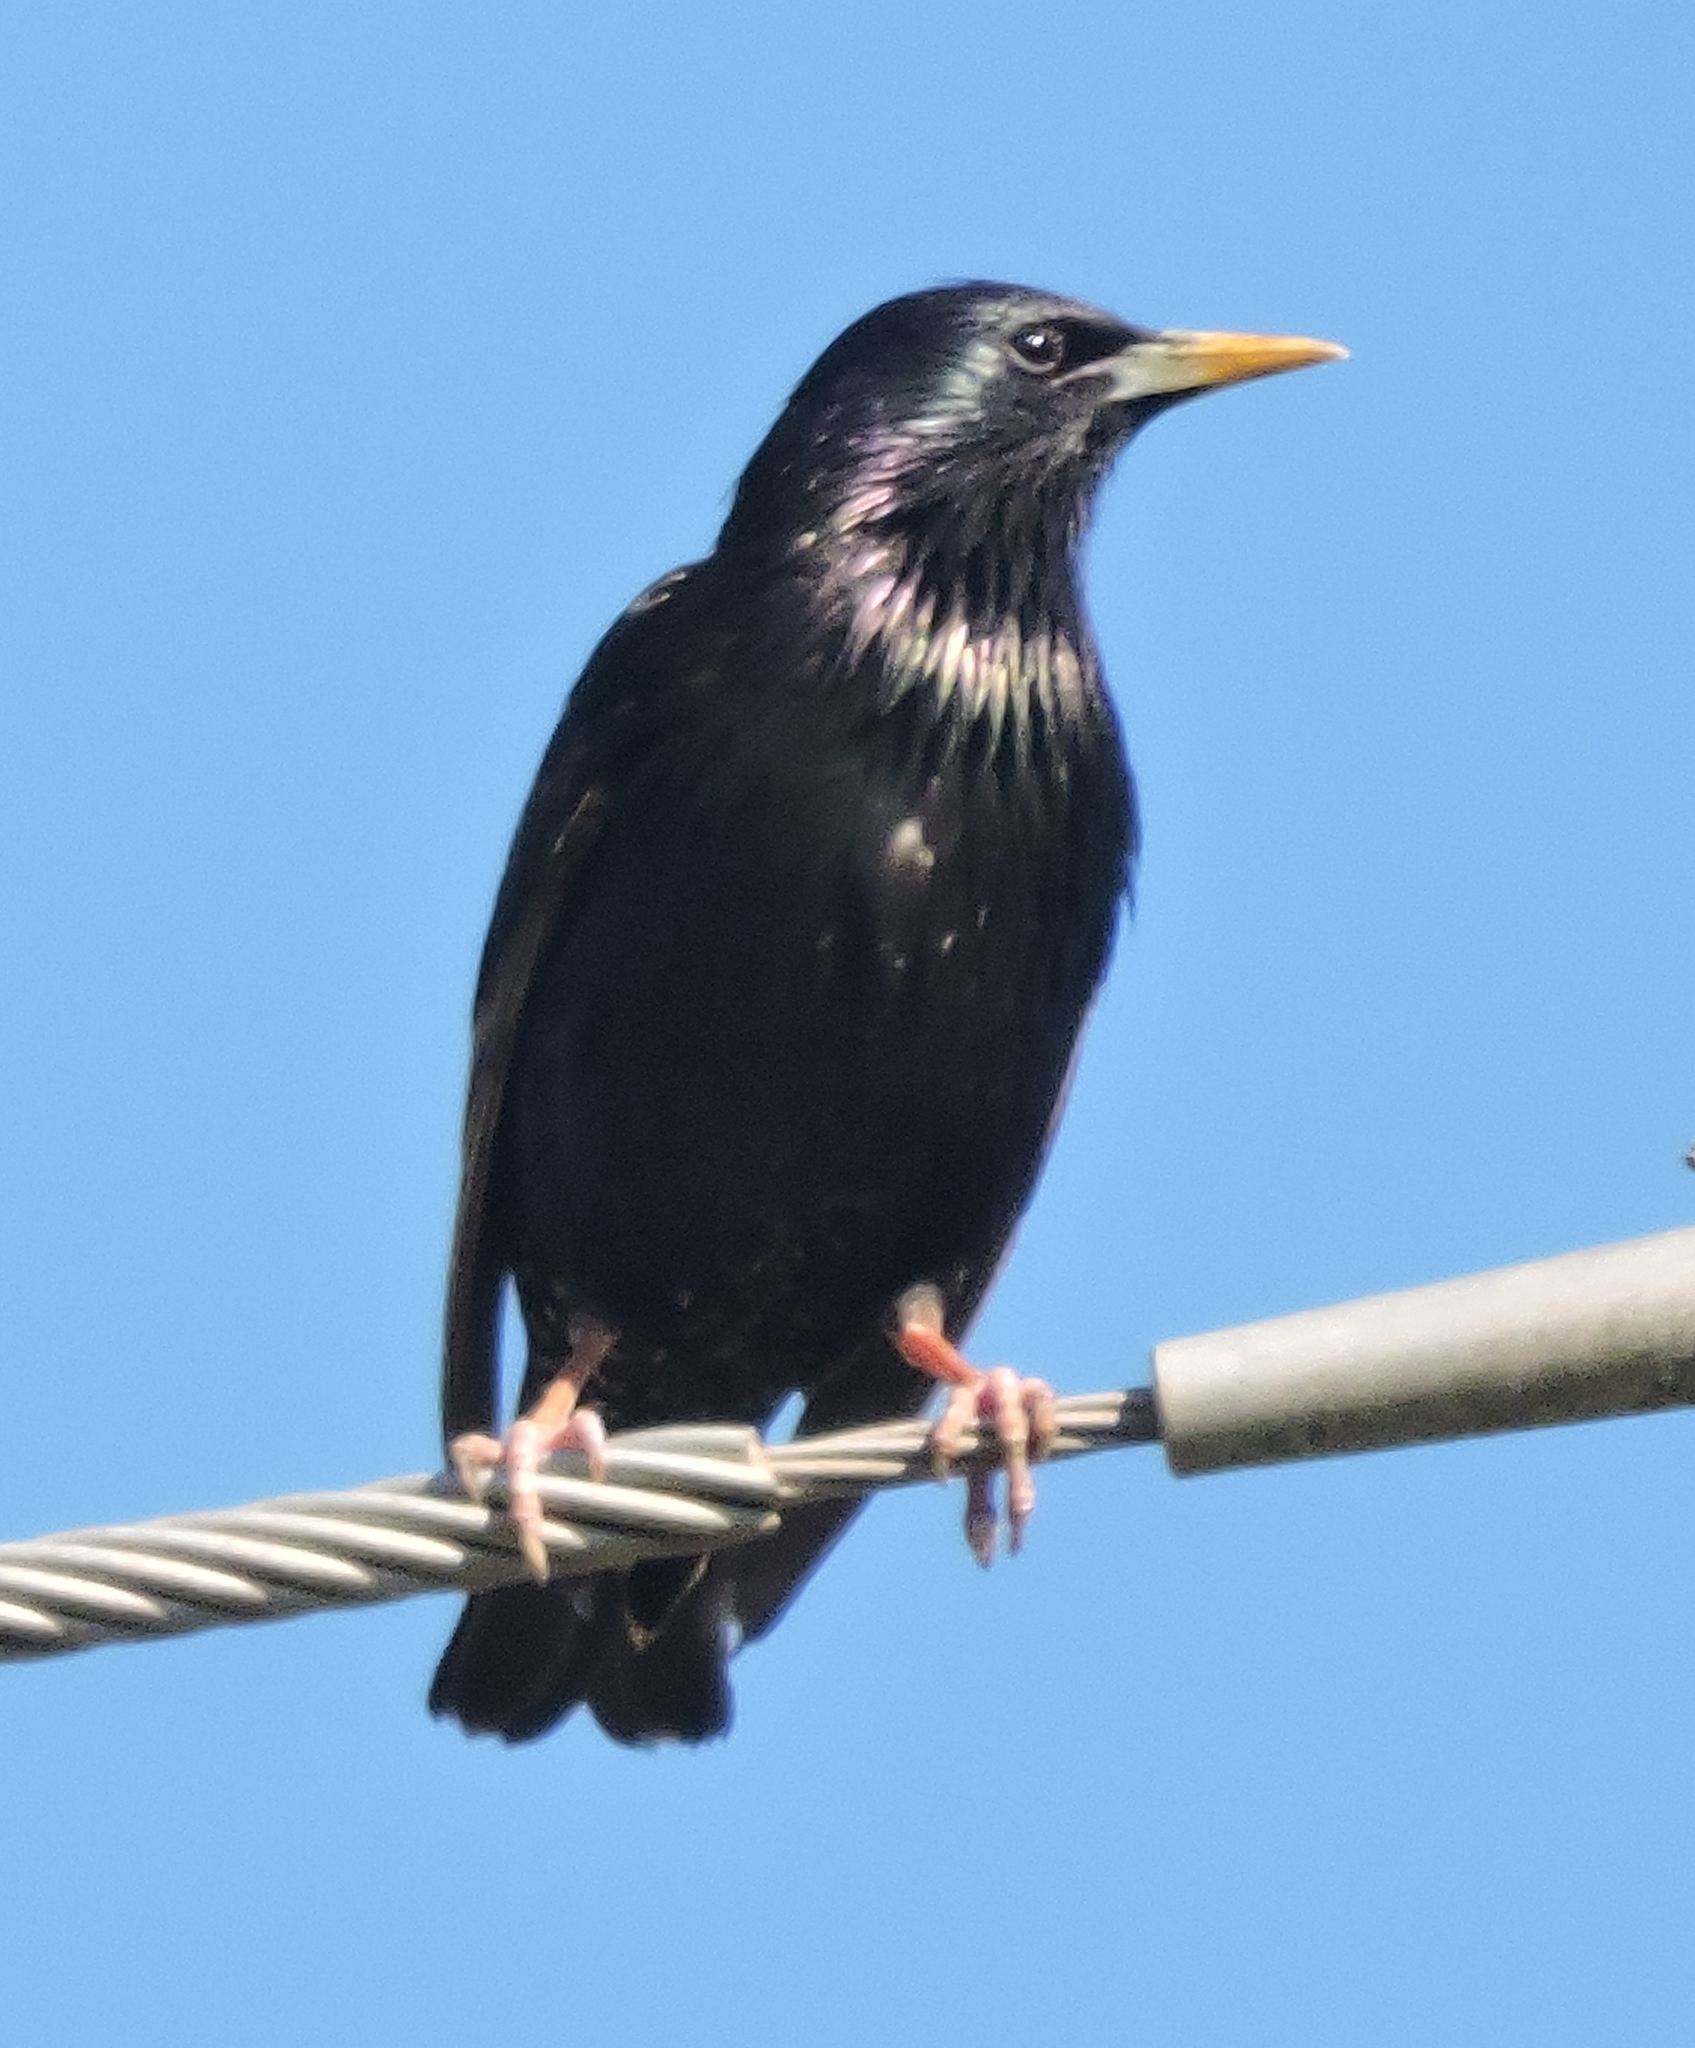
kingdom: Animalia
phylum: Chordata
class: Aves
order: Passeriformes
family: Sturnidae
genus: Sturnus
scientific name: Sturnus vulgaris
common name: Common starling
